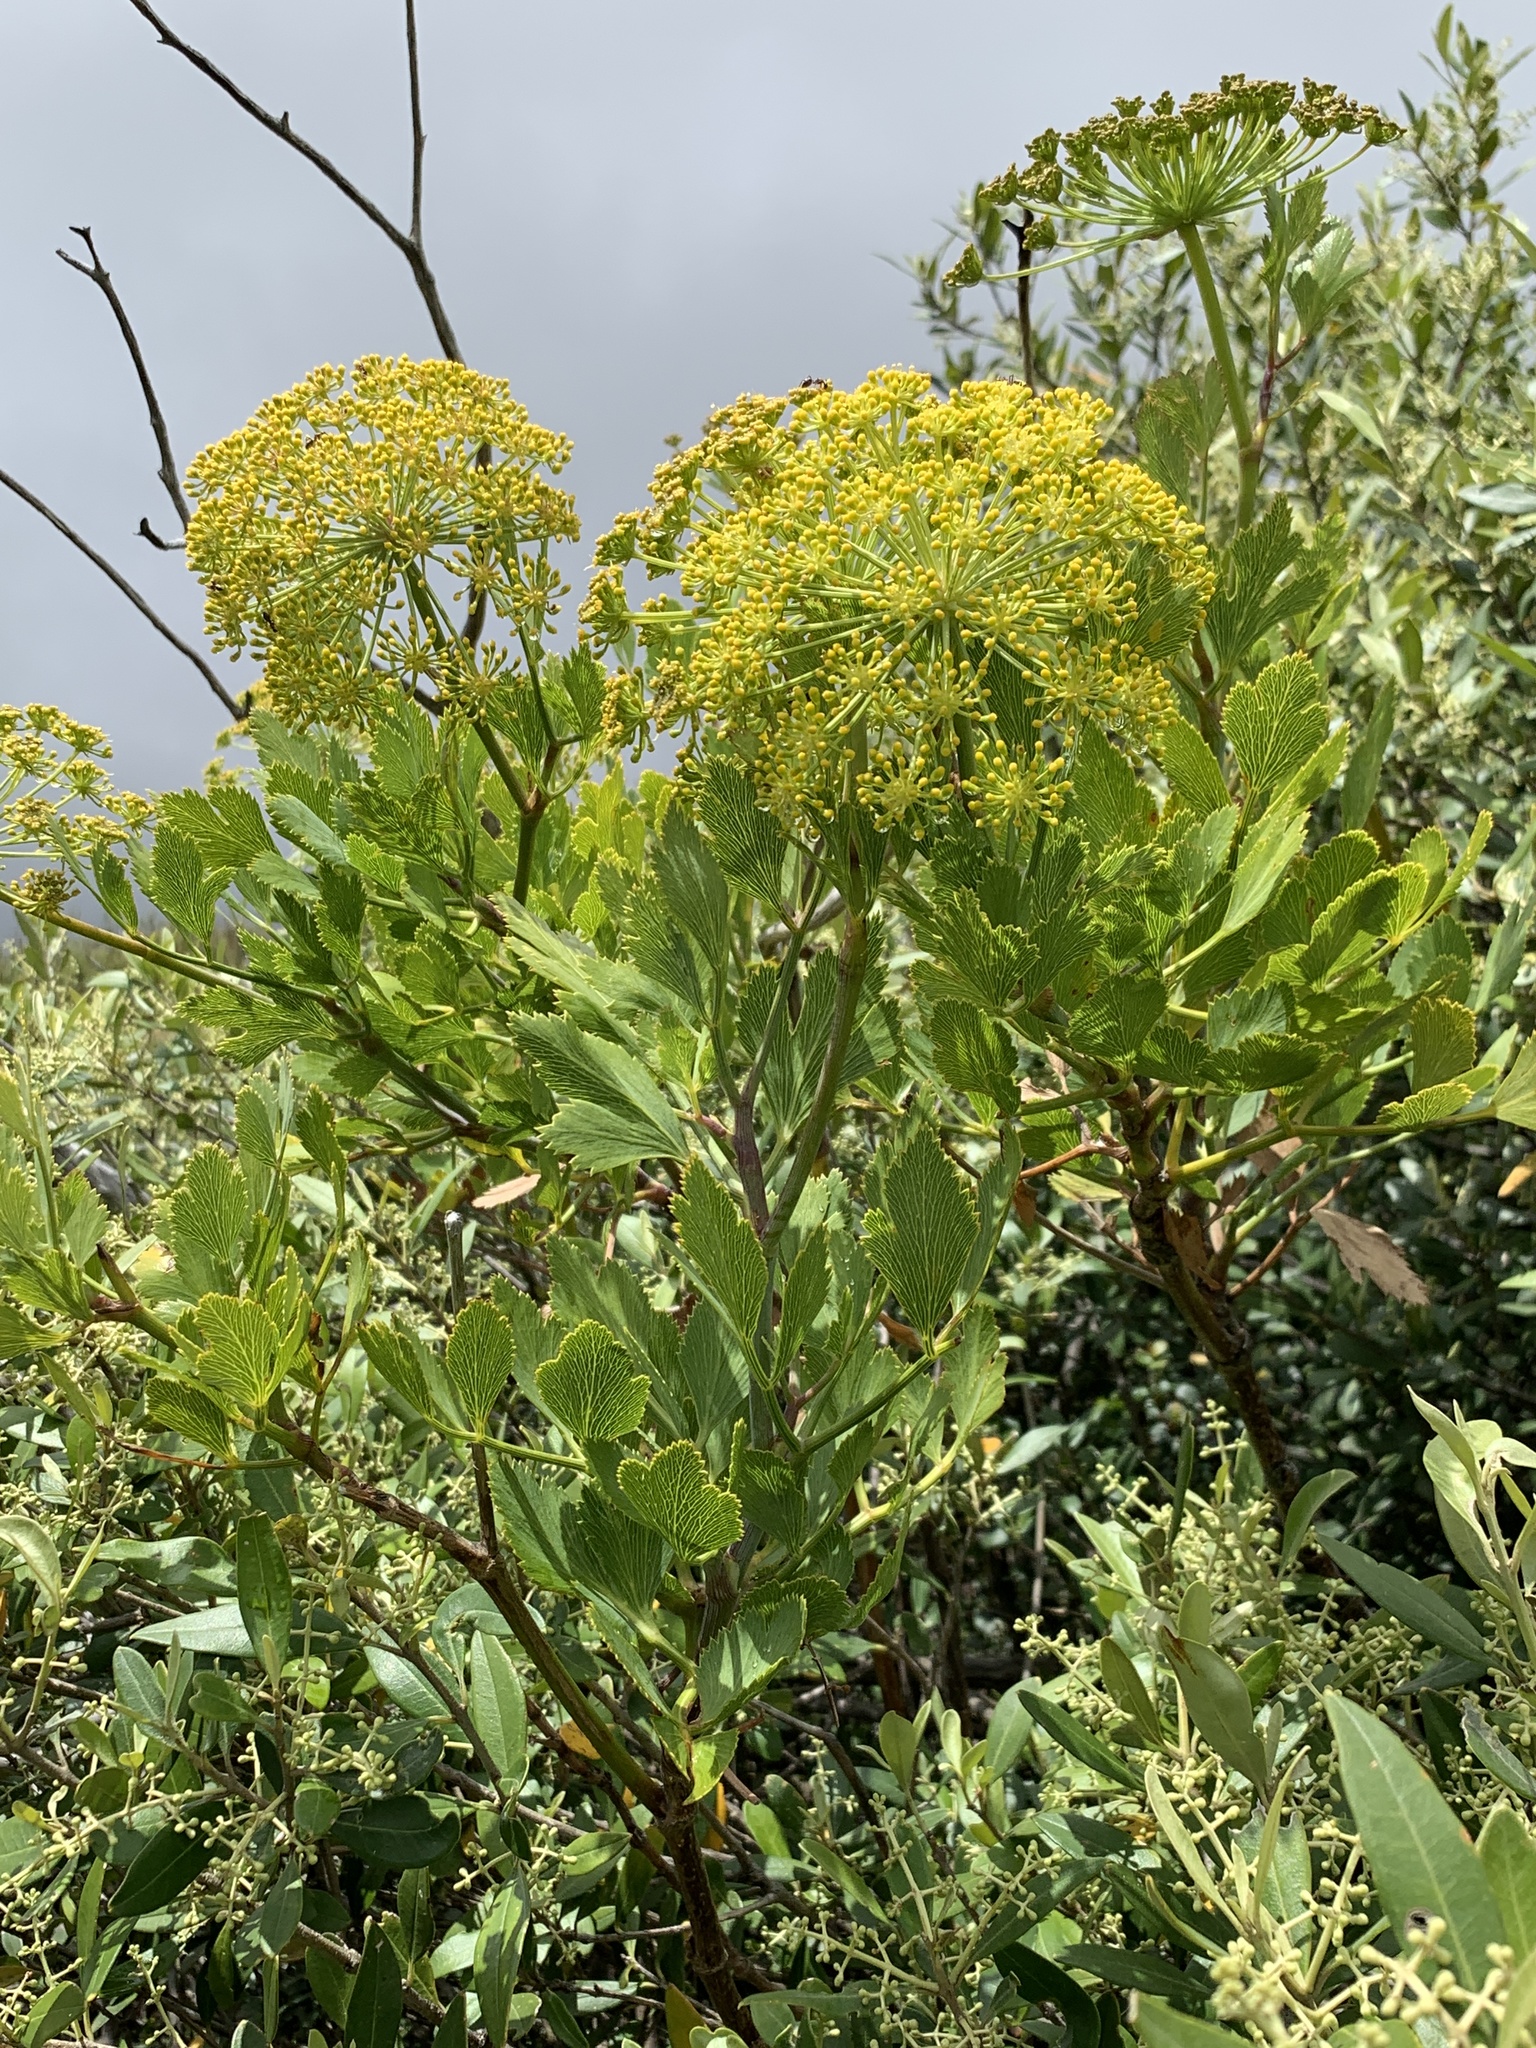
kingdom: Plantae
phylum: Tracheophyta
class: Magnoliopsida
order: Apiales
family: Apiaceae
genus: Notobubon
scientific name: Notobubon galbanum
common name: Blisterbush
